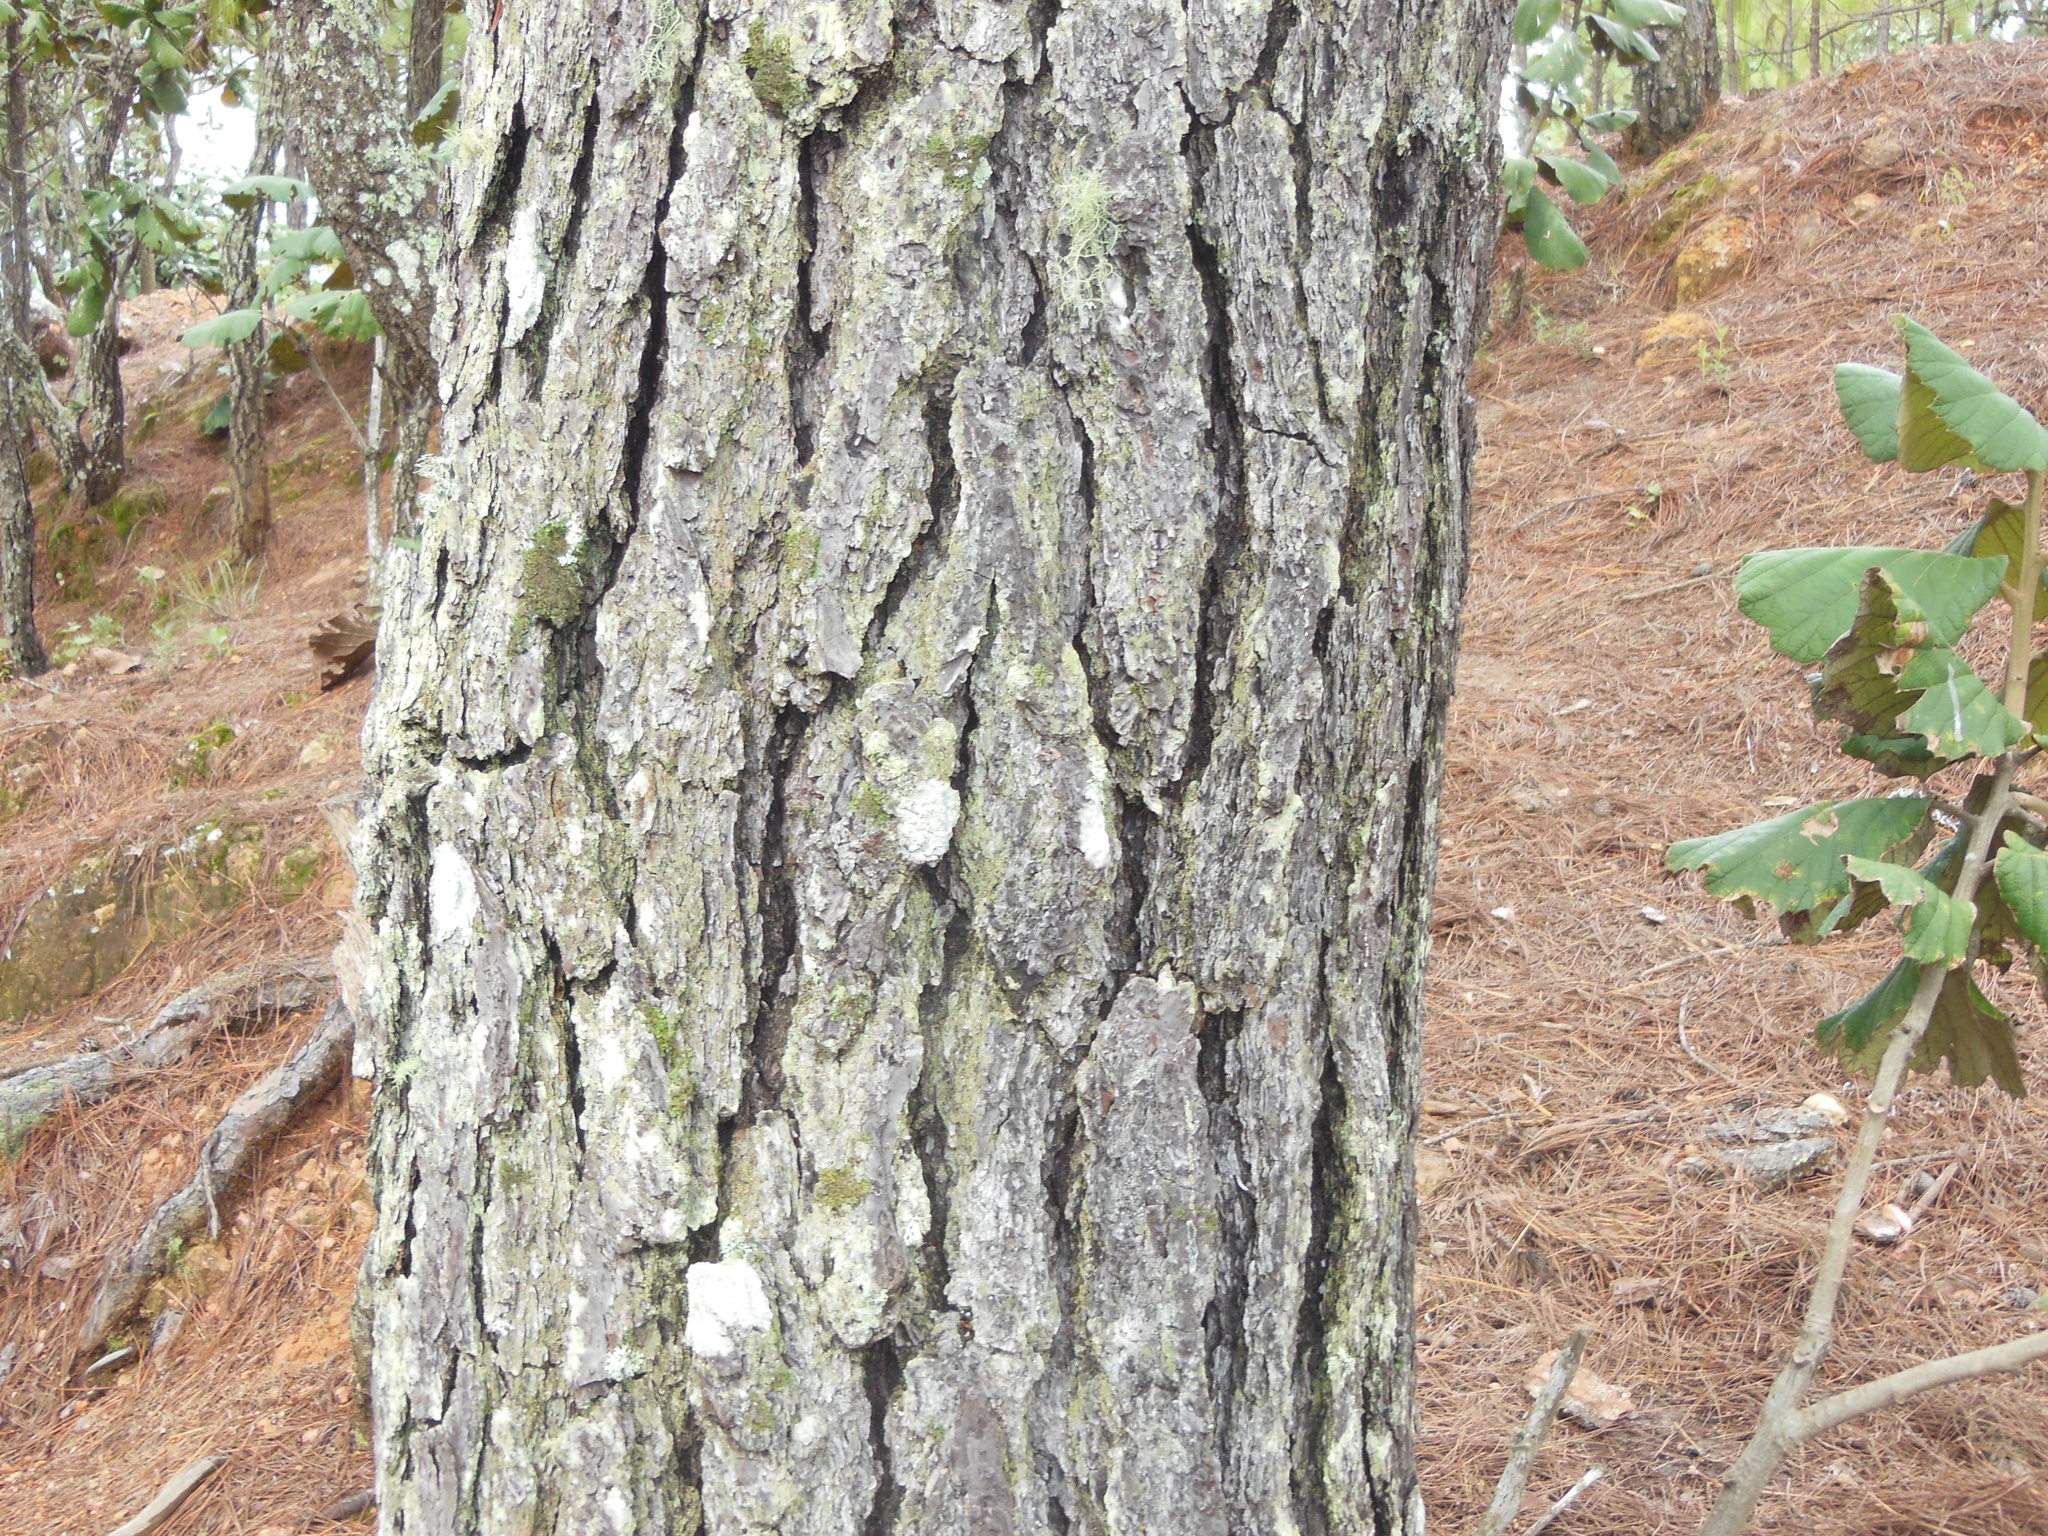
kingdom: Plantae
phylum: Tracheophyta
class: Pinopsida
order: Pinales
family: Pinaceae
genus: Pinus
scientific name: Pinus herrerae
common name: Herrera's pine
